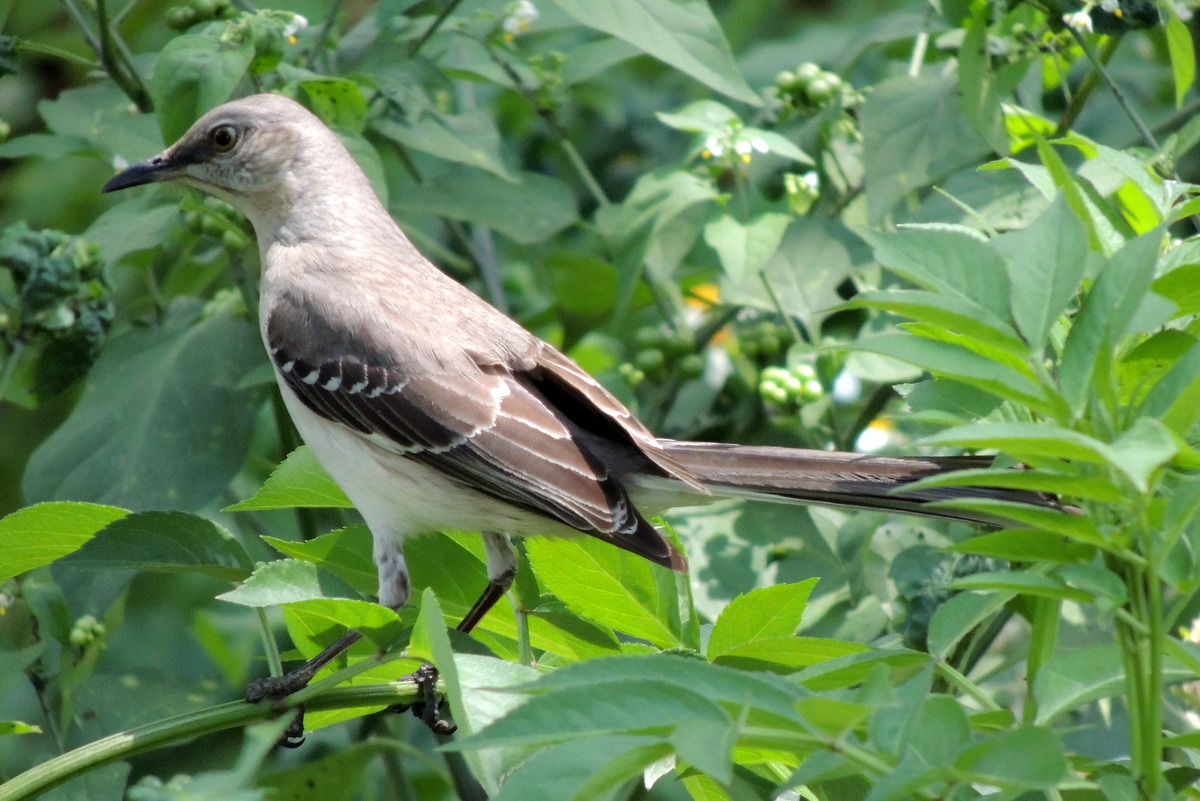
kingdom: Animalia
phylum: Chordata
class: Aves
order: Passeriformes
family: Mimidae
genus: Mimus
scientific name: Mimus polyglottos
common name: Northern mockingbird
